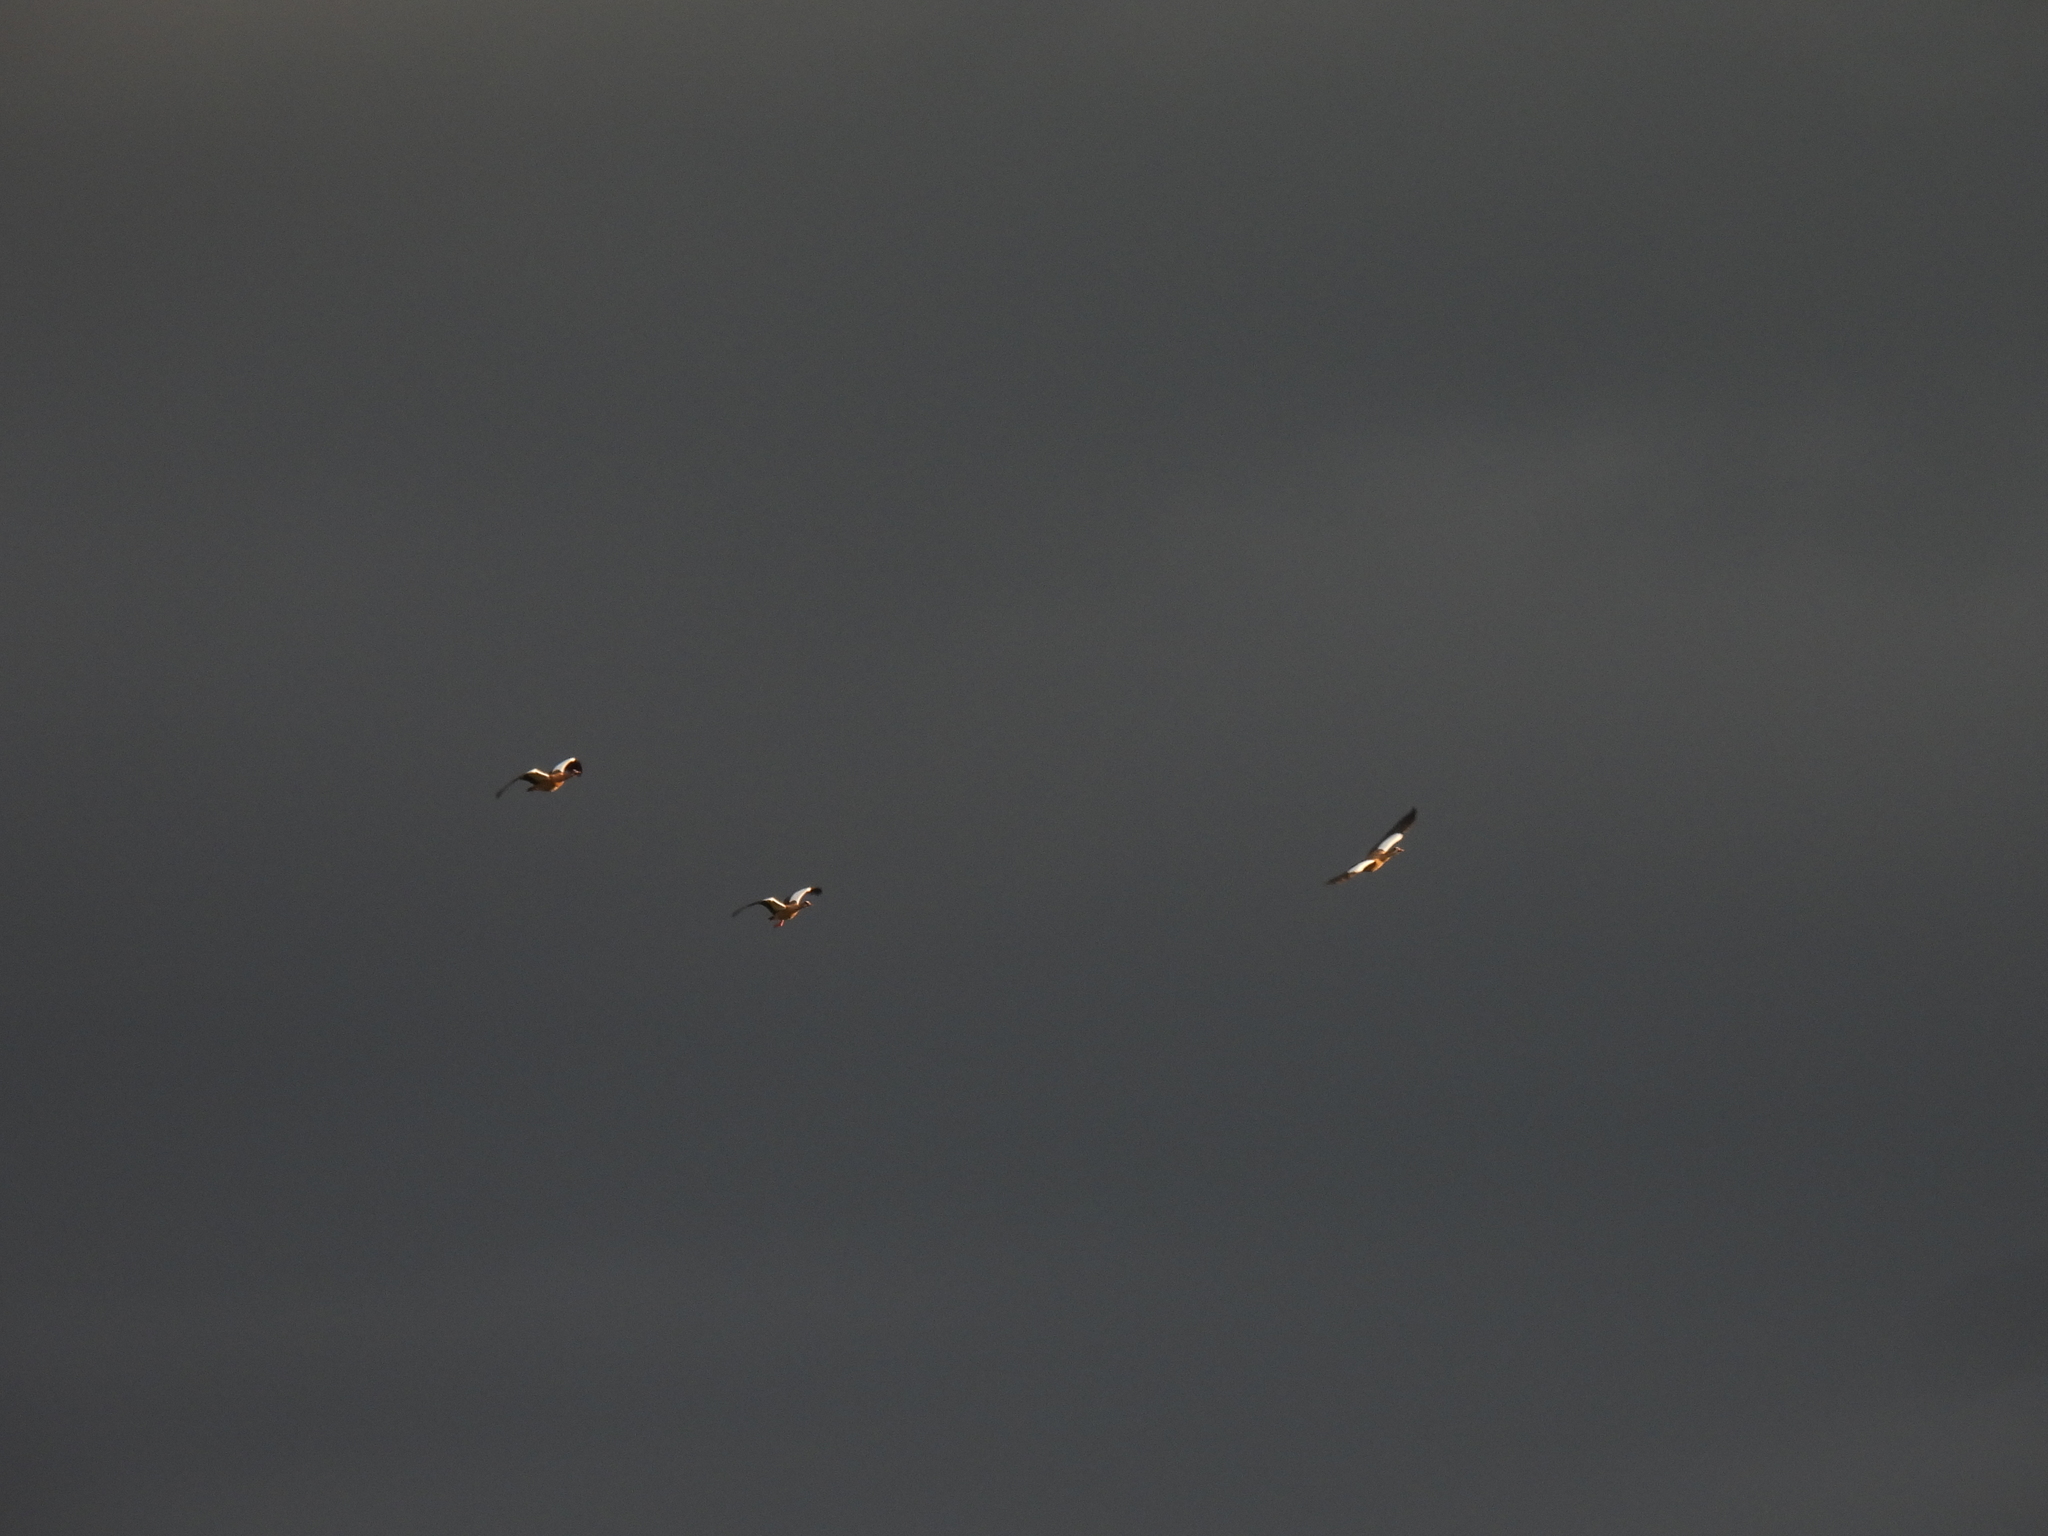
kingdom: Animalia
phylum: Chordata
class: Aves
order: Anseriformes
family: Anatidae
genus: Alopochen
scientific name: Alopochen aegyptiaca
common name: Egyptian goose
